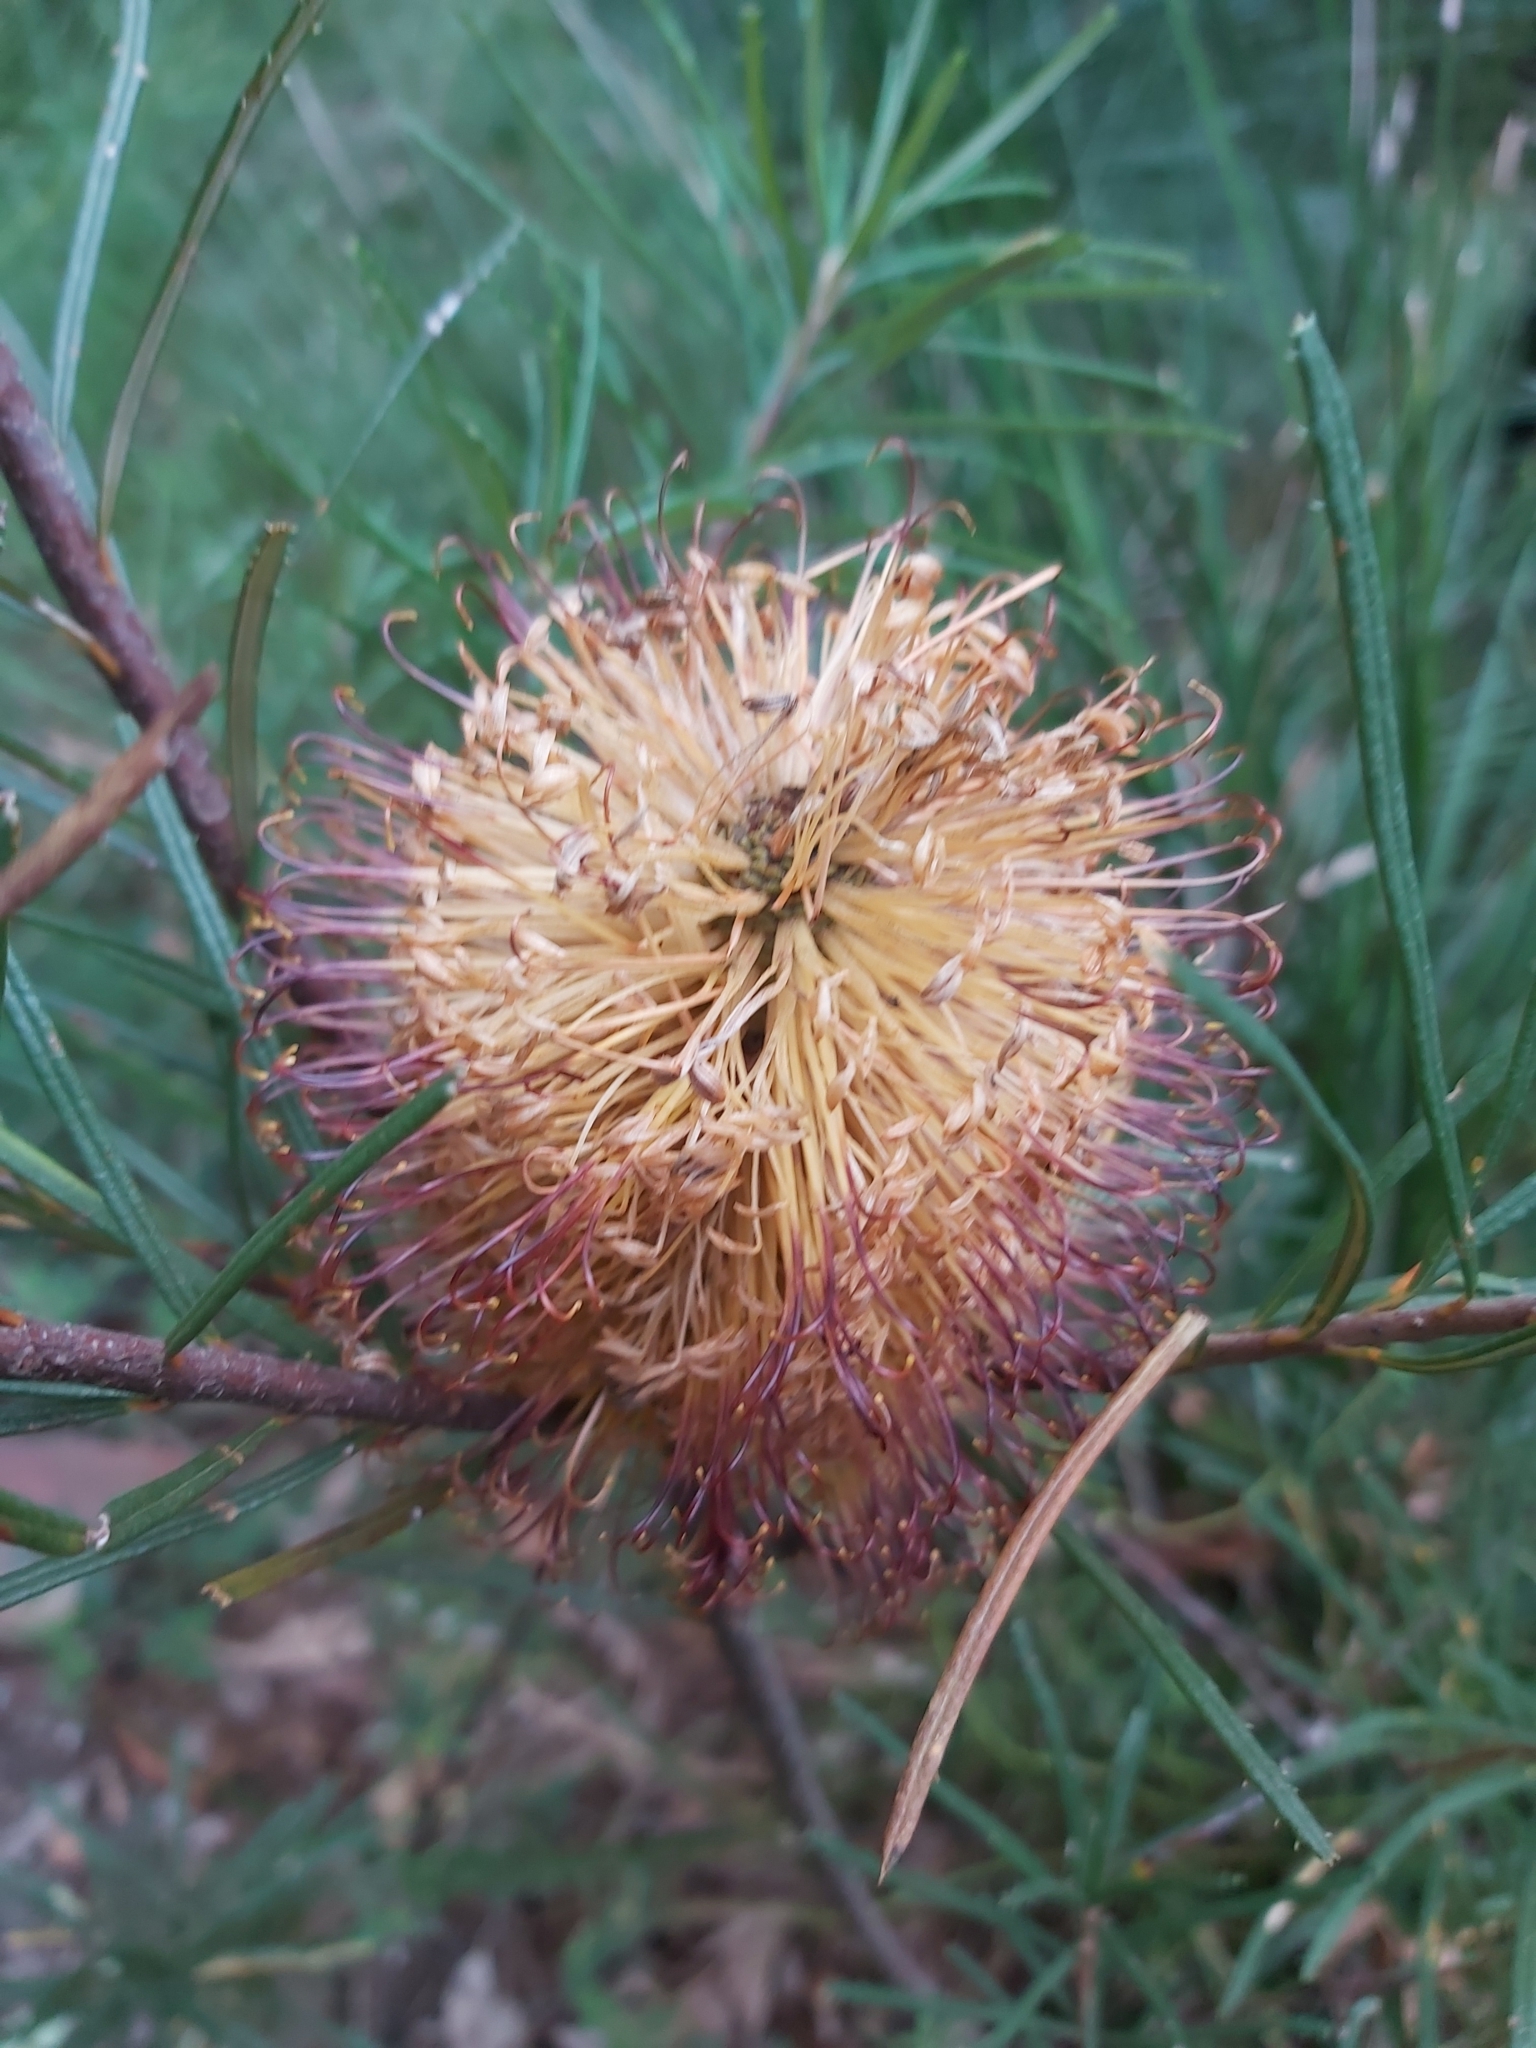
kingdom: Plantae
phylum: Tracheophyta
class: Magnoliopsida
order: Proteales
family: Proteaceae
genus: Banksia
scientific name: Banksia spinulosa
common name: Hairpin banksia
